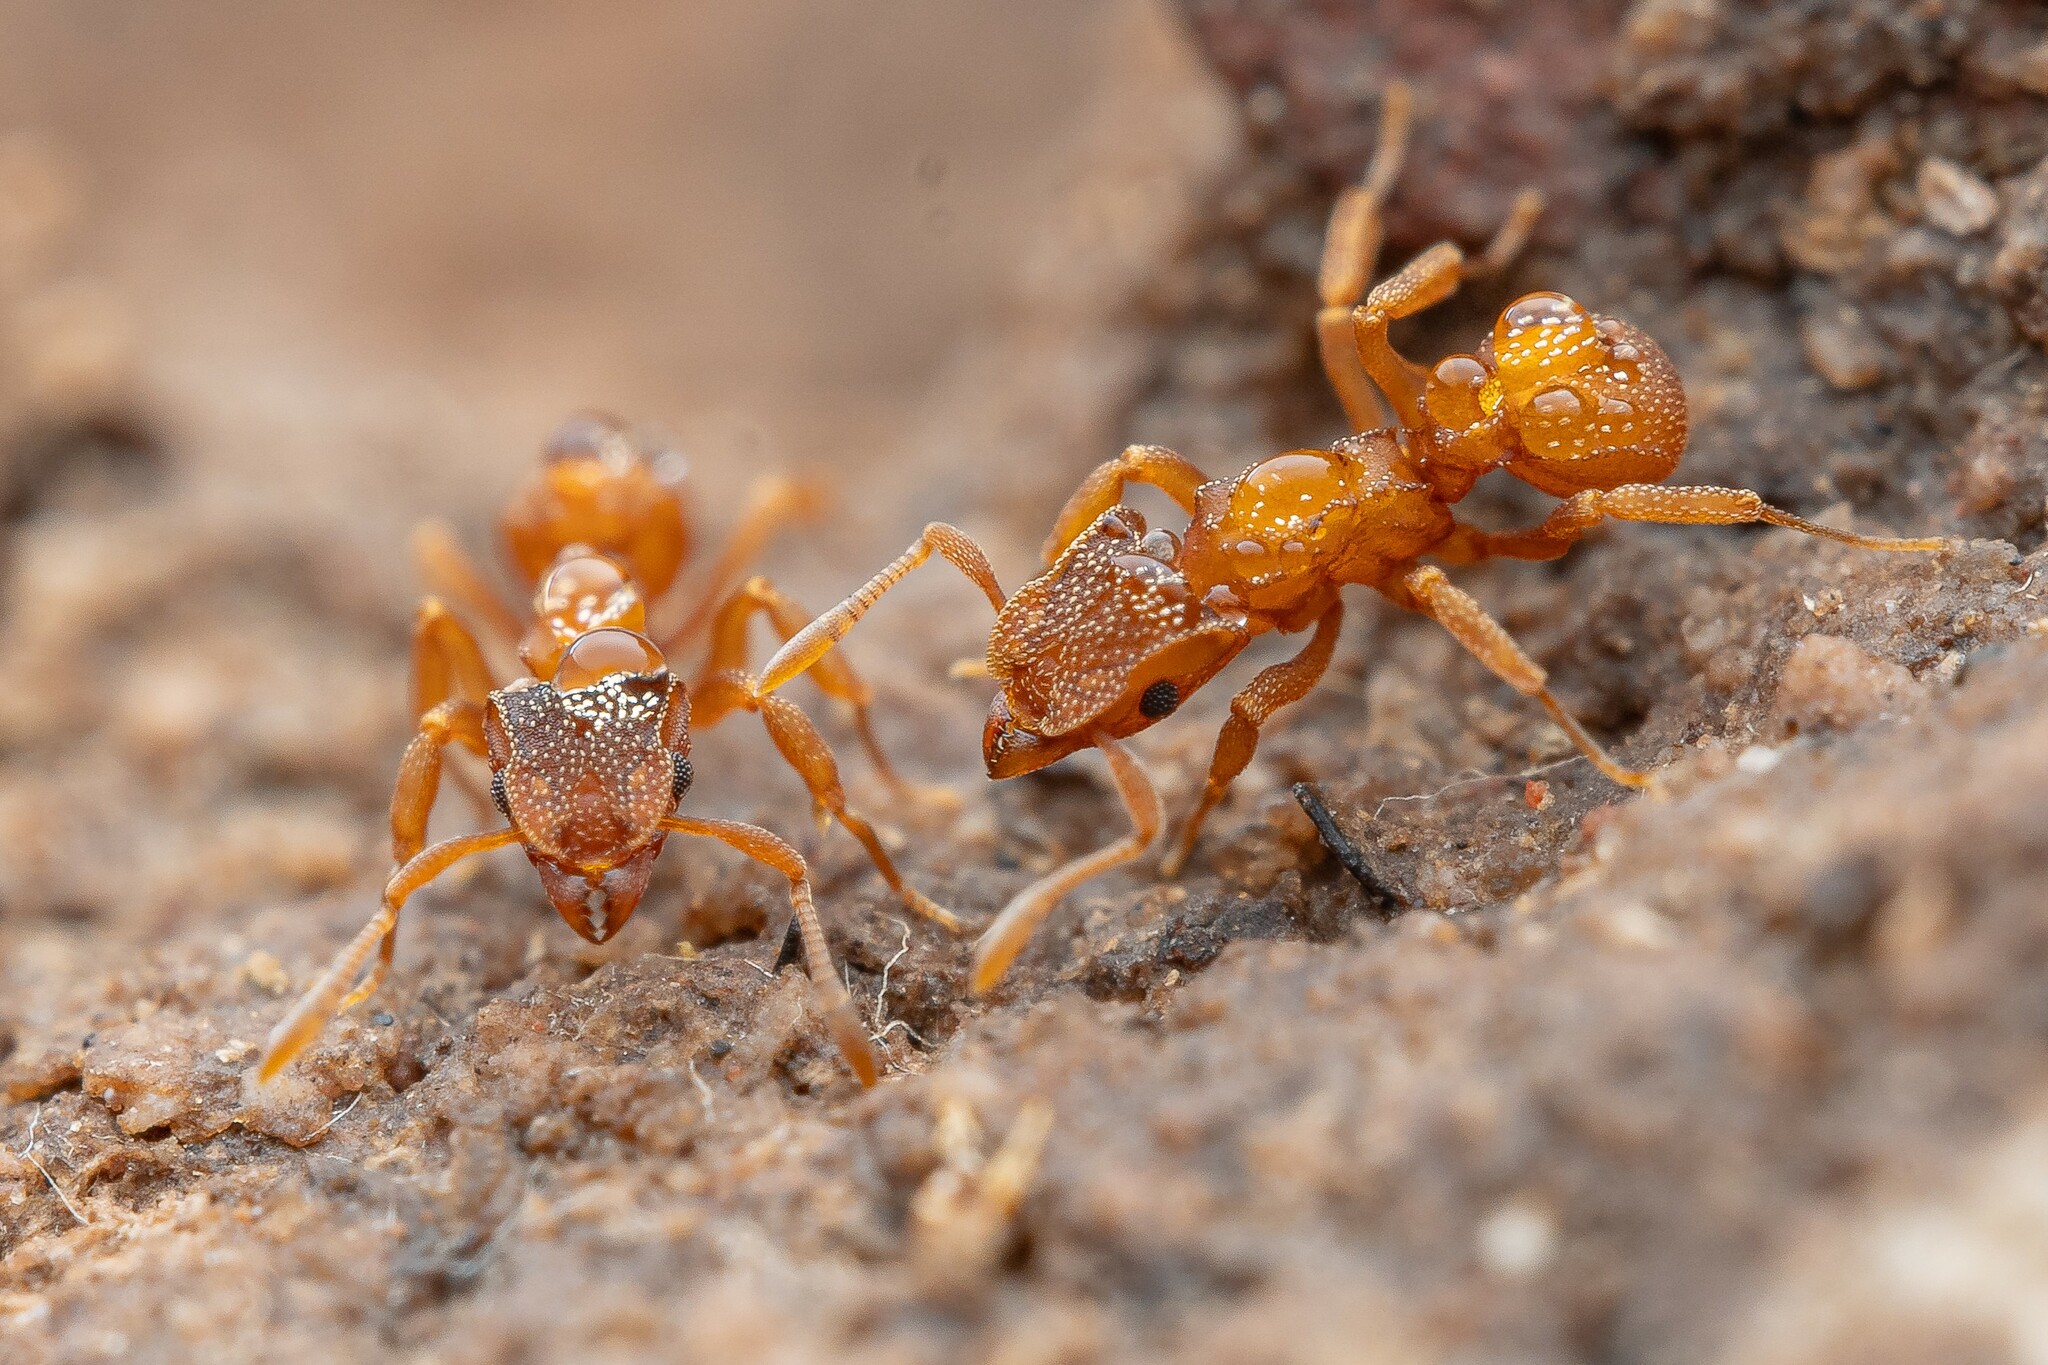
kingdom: Animalia
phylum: Arthropoda
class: Insecta
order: Hymenoptera
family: Formicidae
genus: Cyphomyrmex
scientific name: Cyphomyrmex wheeleri
